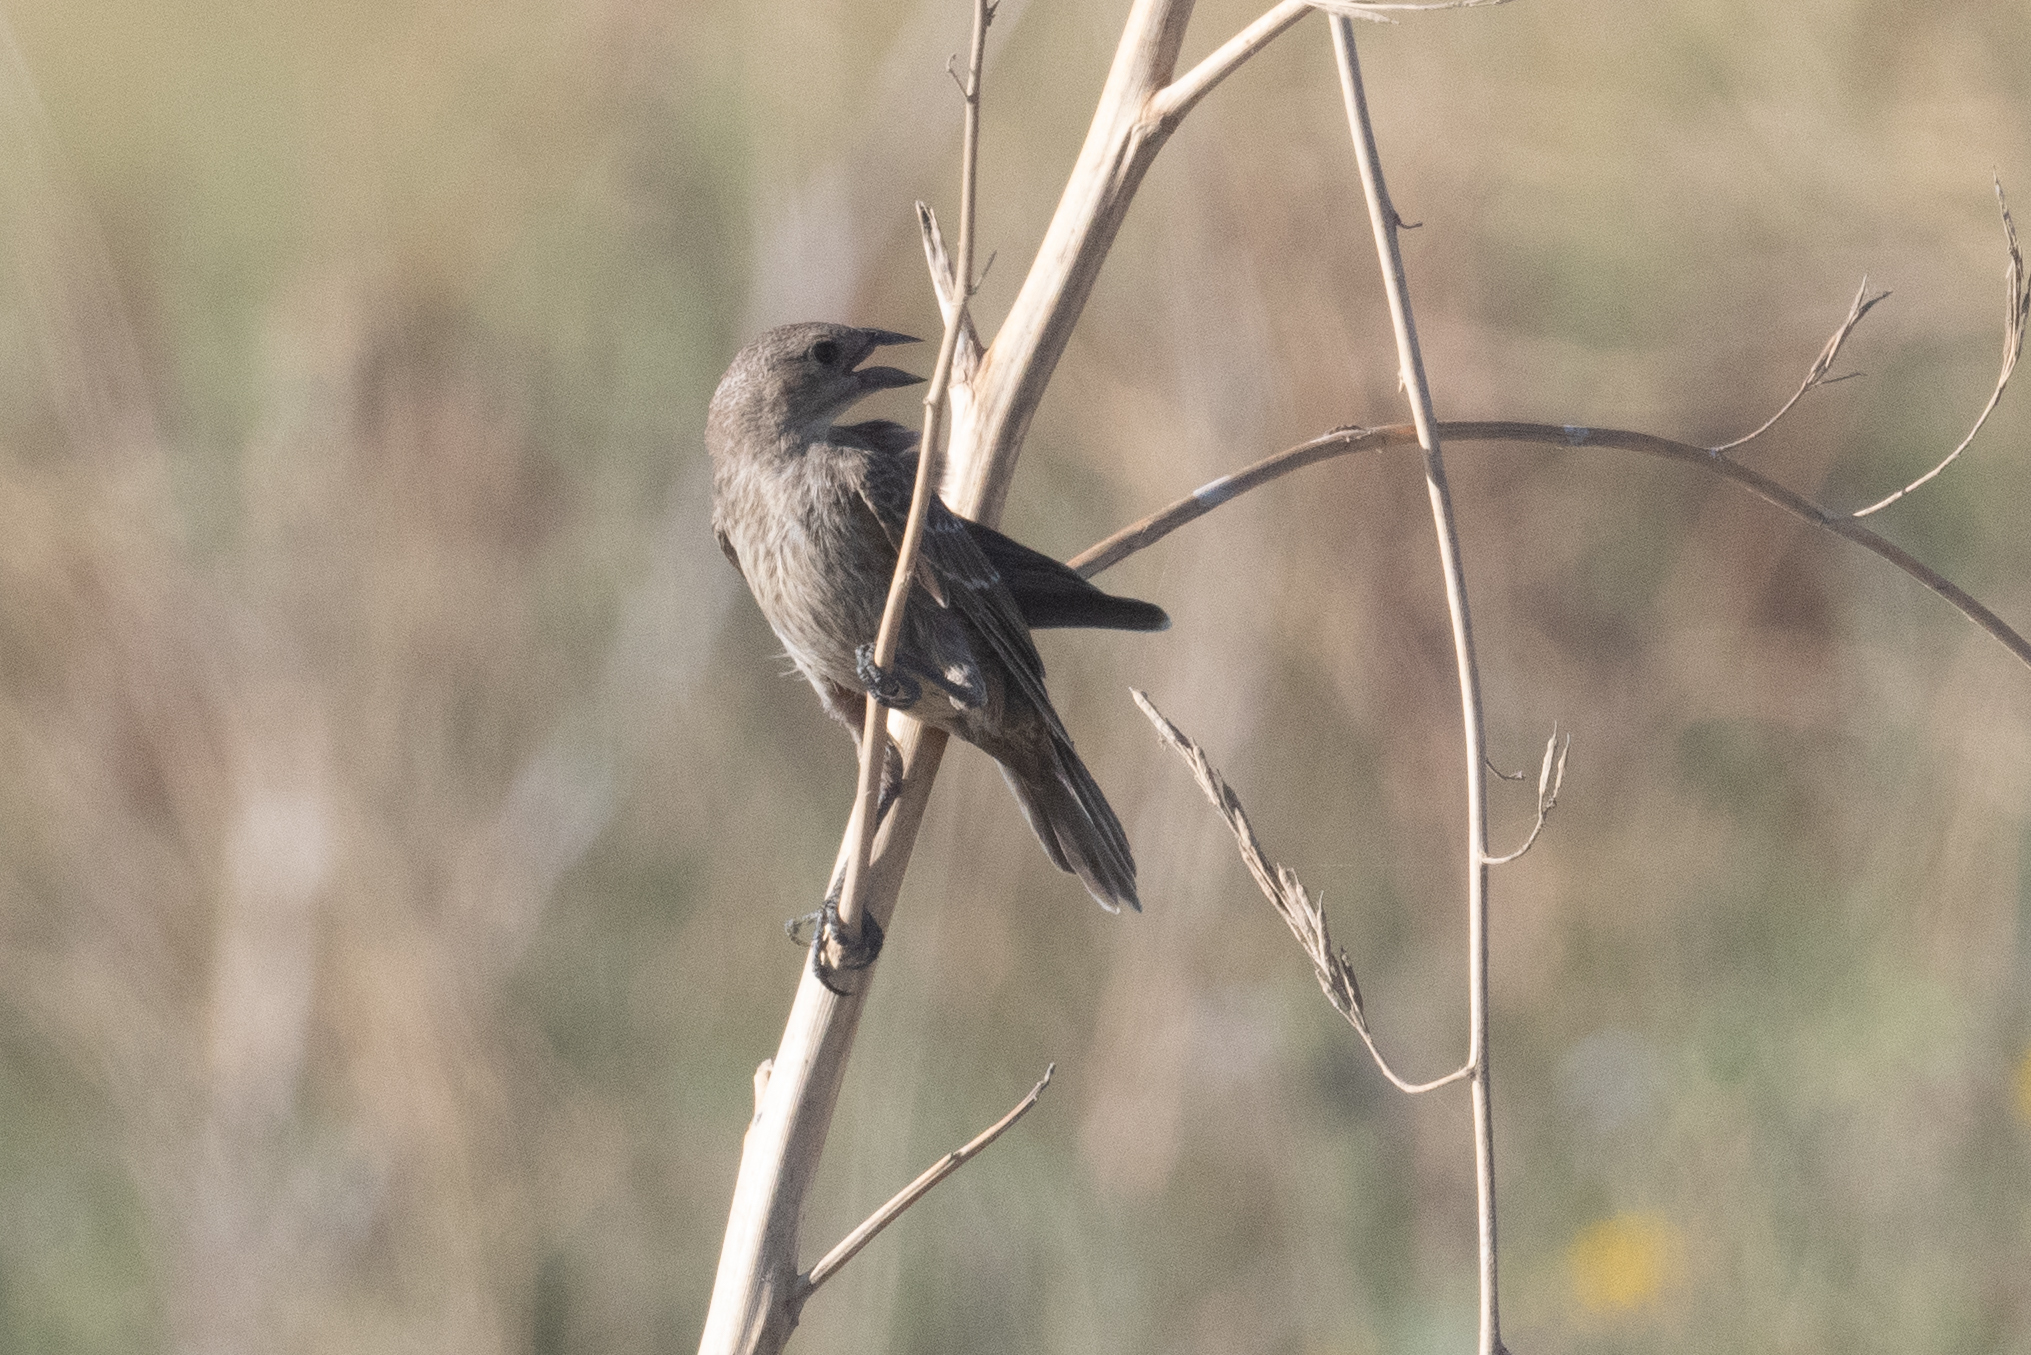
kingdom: Animalia
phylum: Chordata
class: Aves
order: Passeriformes
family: Icteridae
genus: Molothrus
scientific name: Molothrus ater
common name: Brown-headed cowbird
